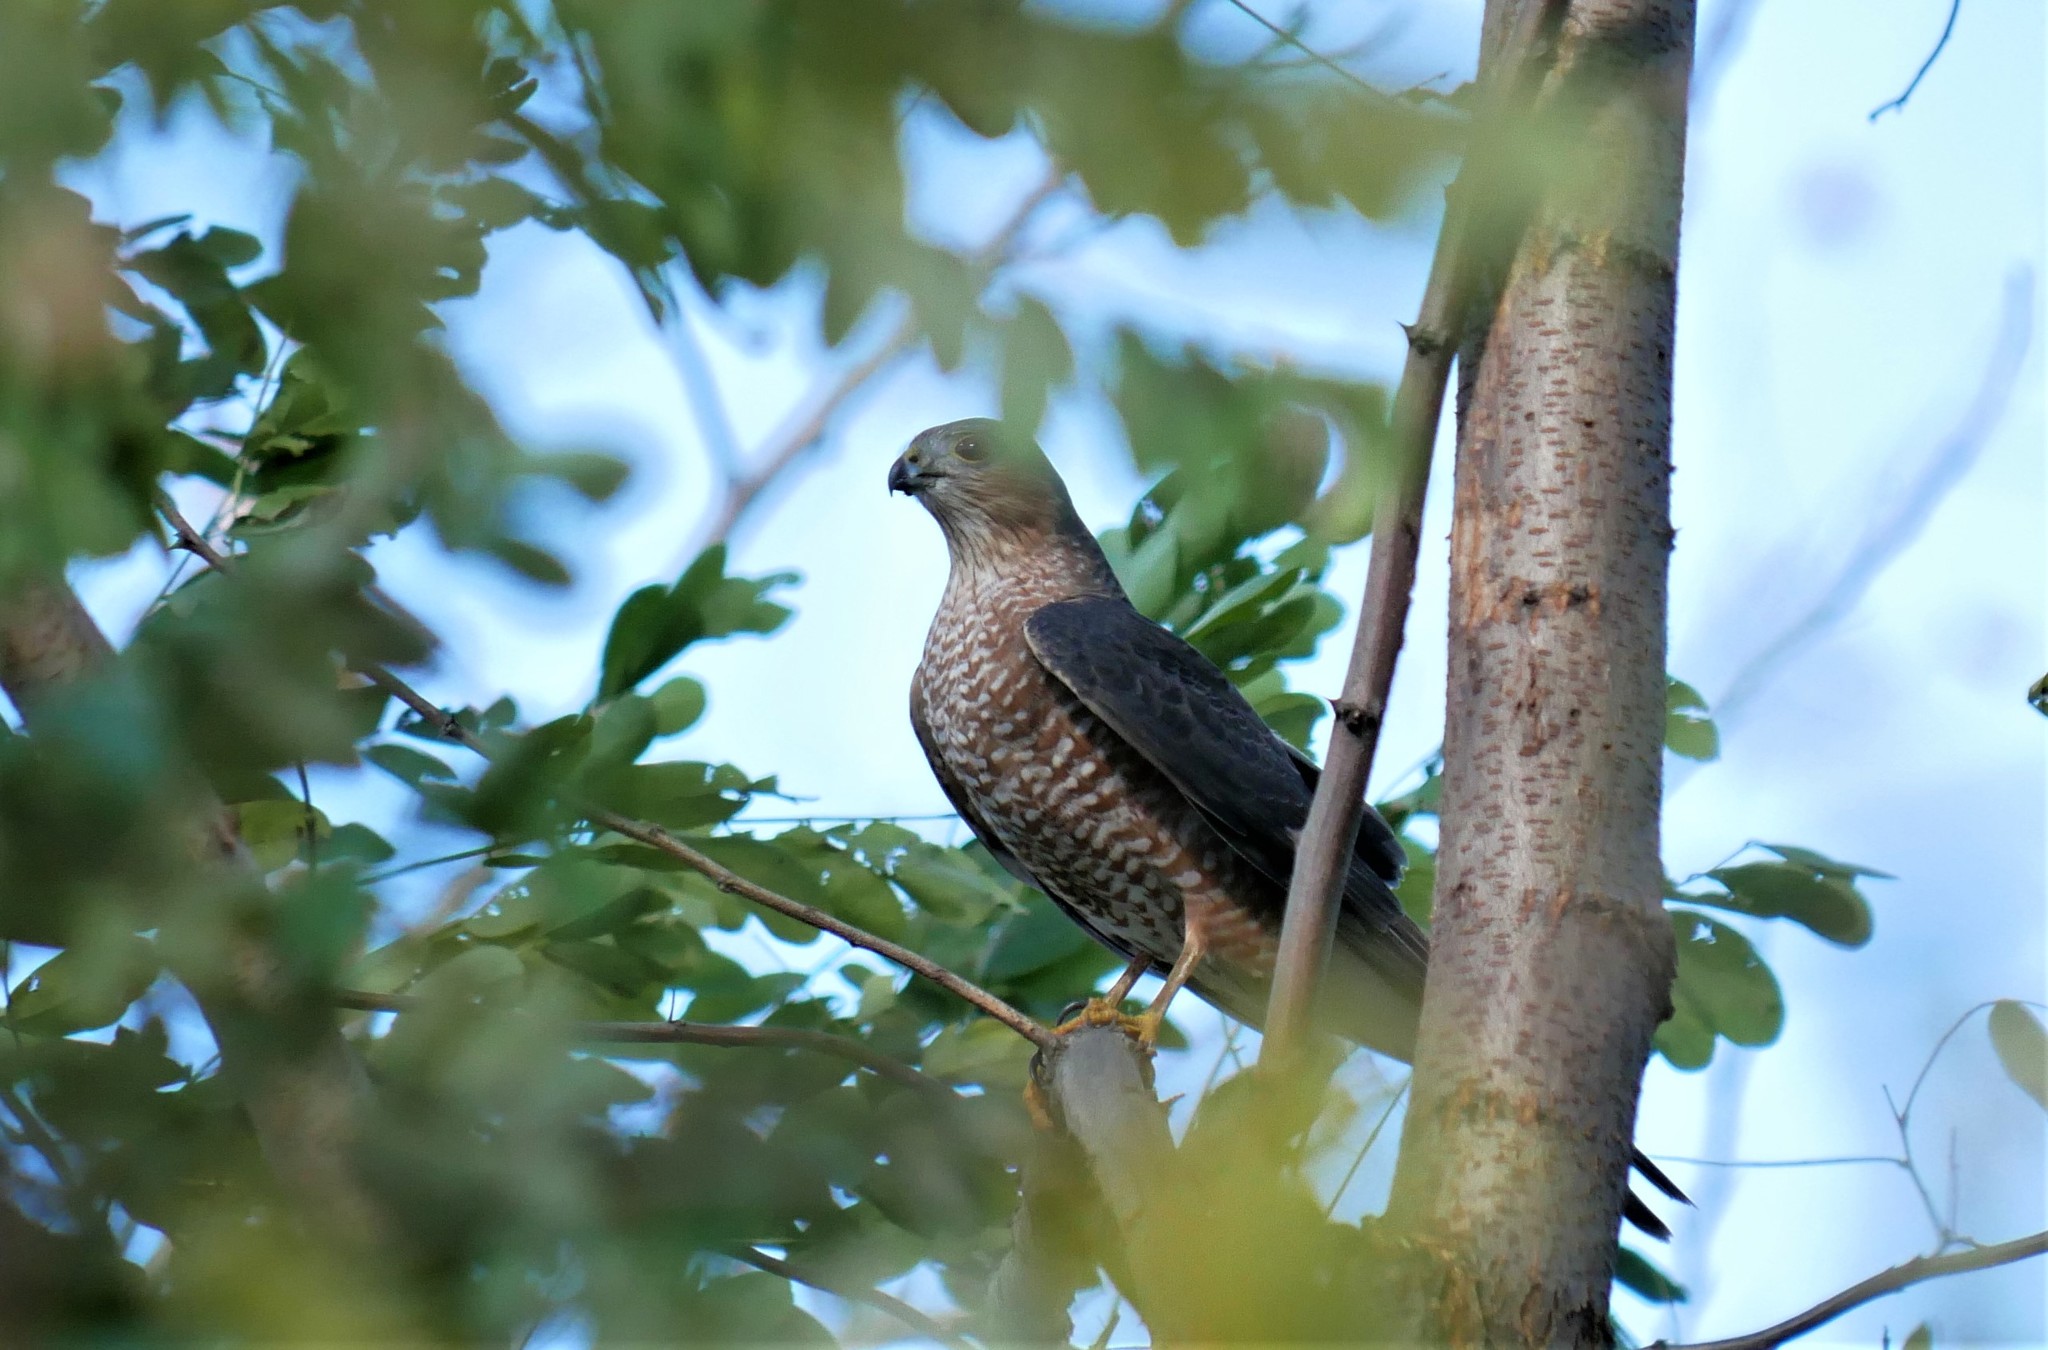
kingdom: Animalia
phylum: Chordata
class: Aves
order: Accipitriformes
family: Accipitridae
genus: Accipiter
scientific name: Accipiter cooperii
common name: Cooper's hawk
